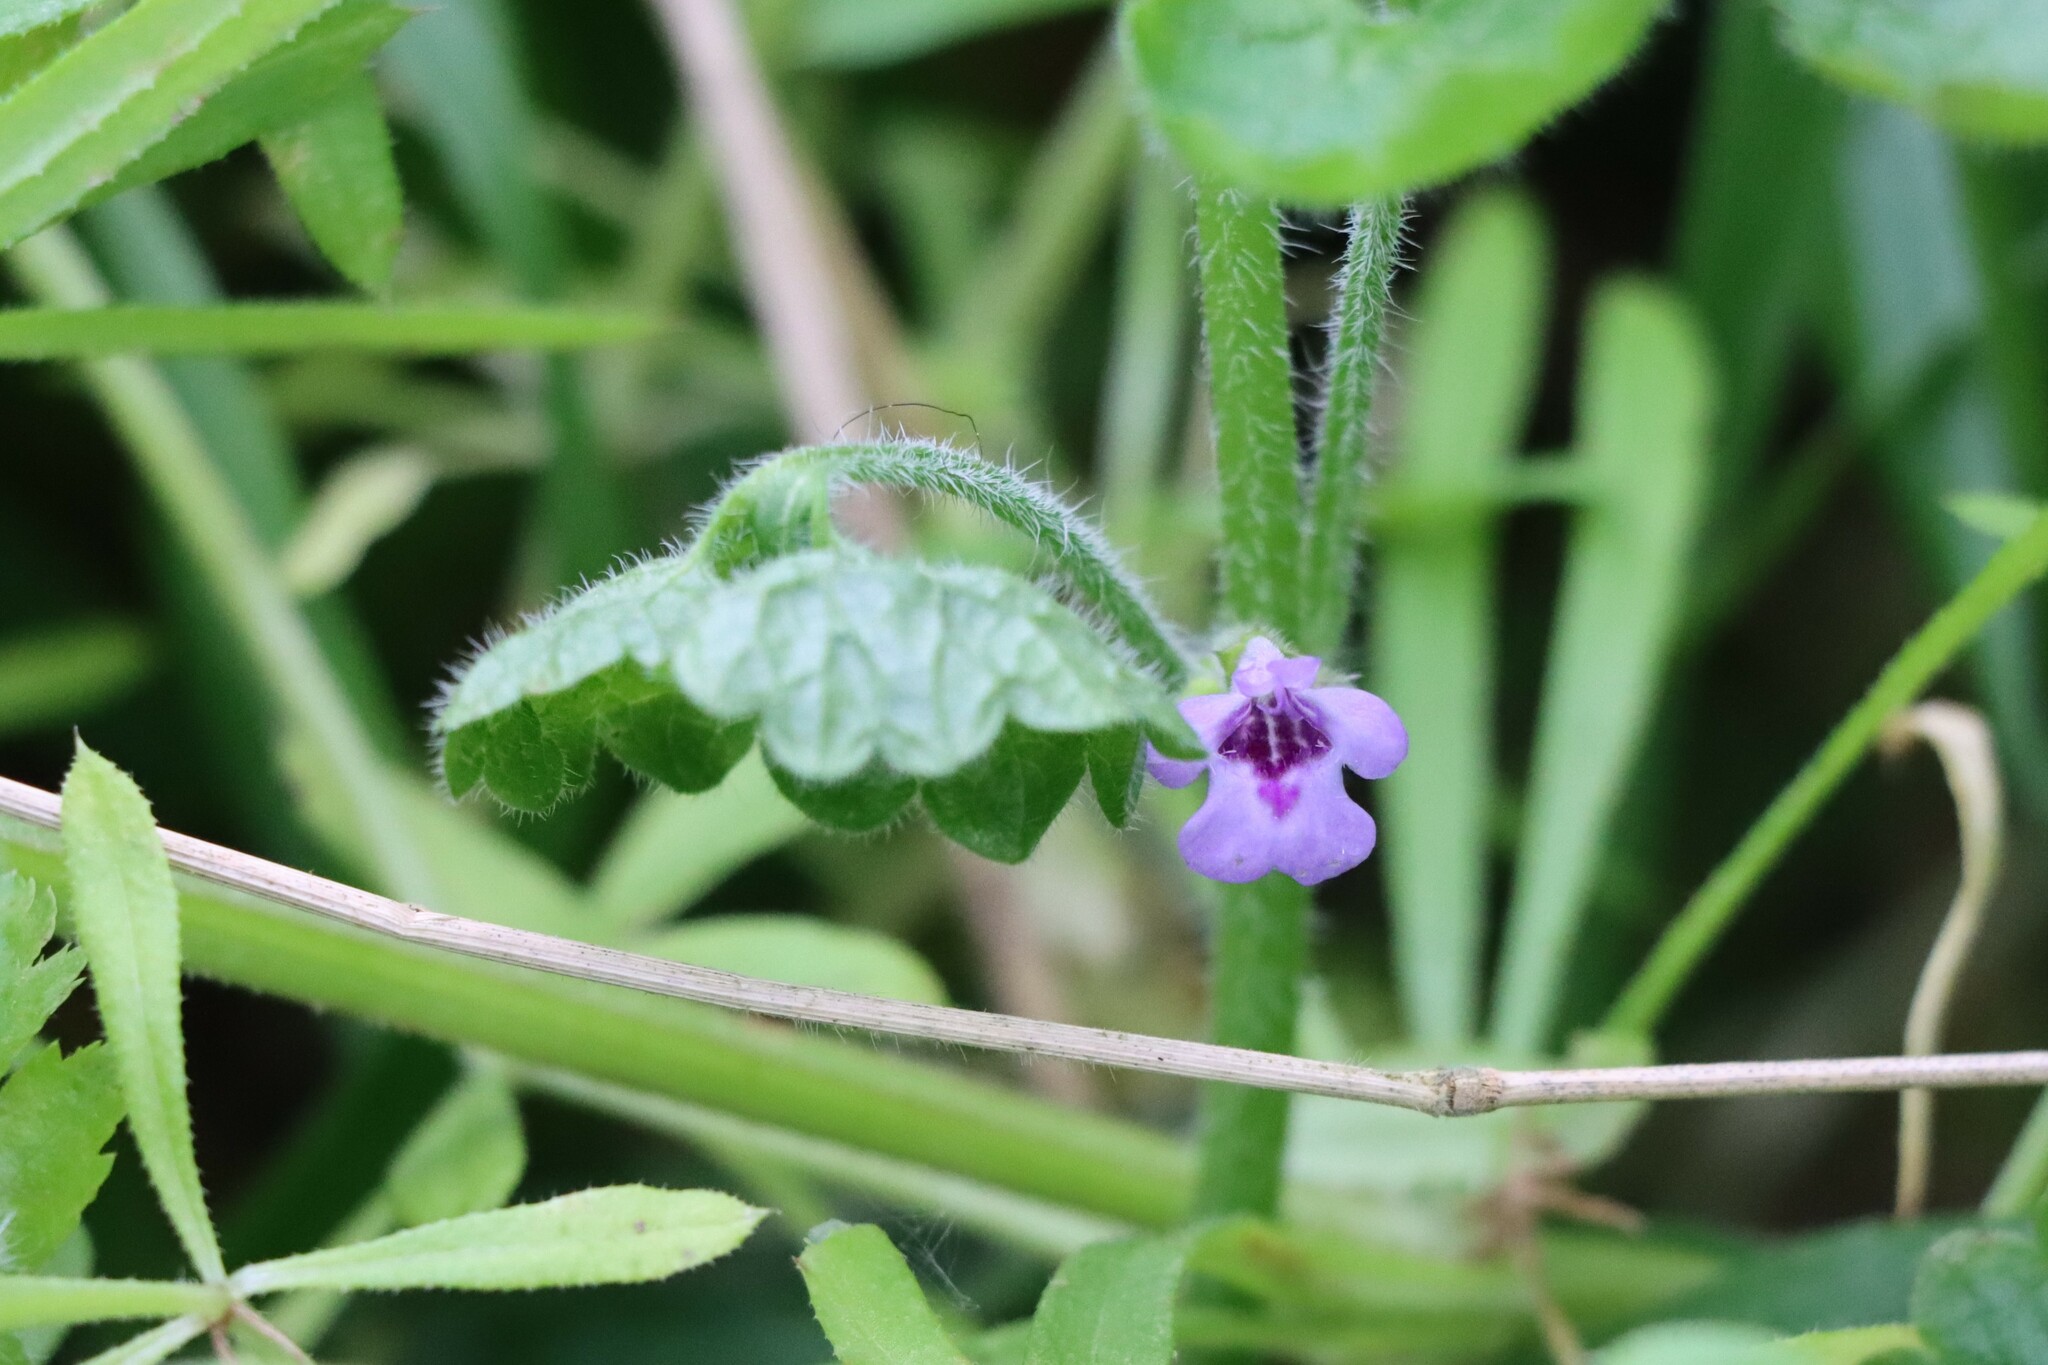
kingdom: Plantae
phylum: Tracheophyta
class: Magnoliopsida
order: Lamiales
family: Lamiaceae
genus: Glechoma
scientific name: Glechoma hederacea
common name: Ground ivy
